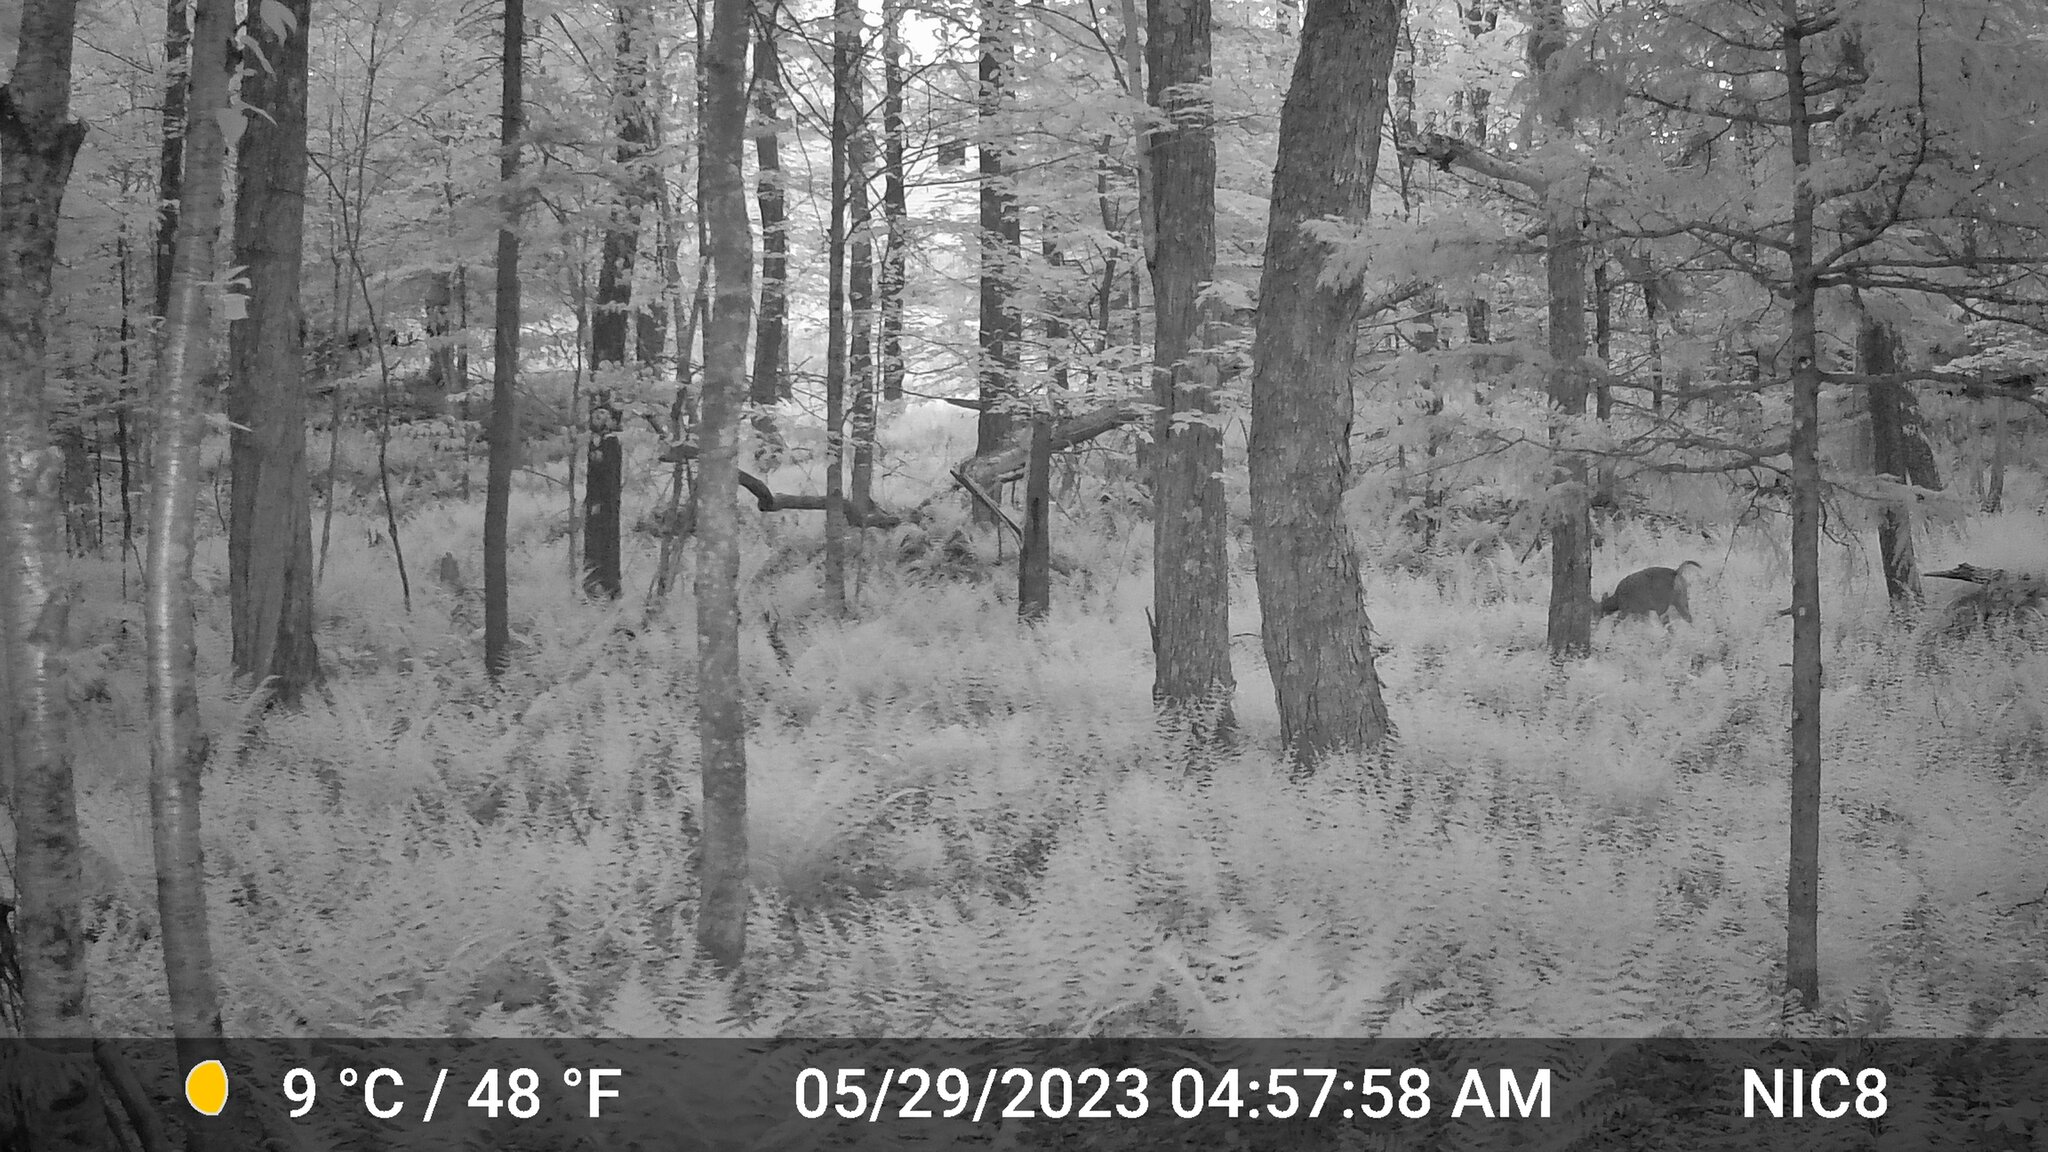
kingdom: Animalia
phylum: Chordata
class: Mammalia
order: Artiodactyla
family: Cervidae
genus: Odocoileus
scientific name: Odocoileus virginianus
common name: White-tailed deer
